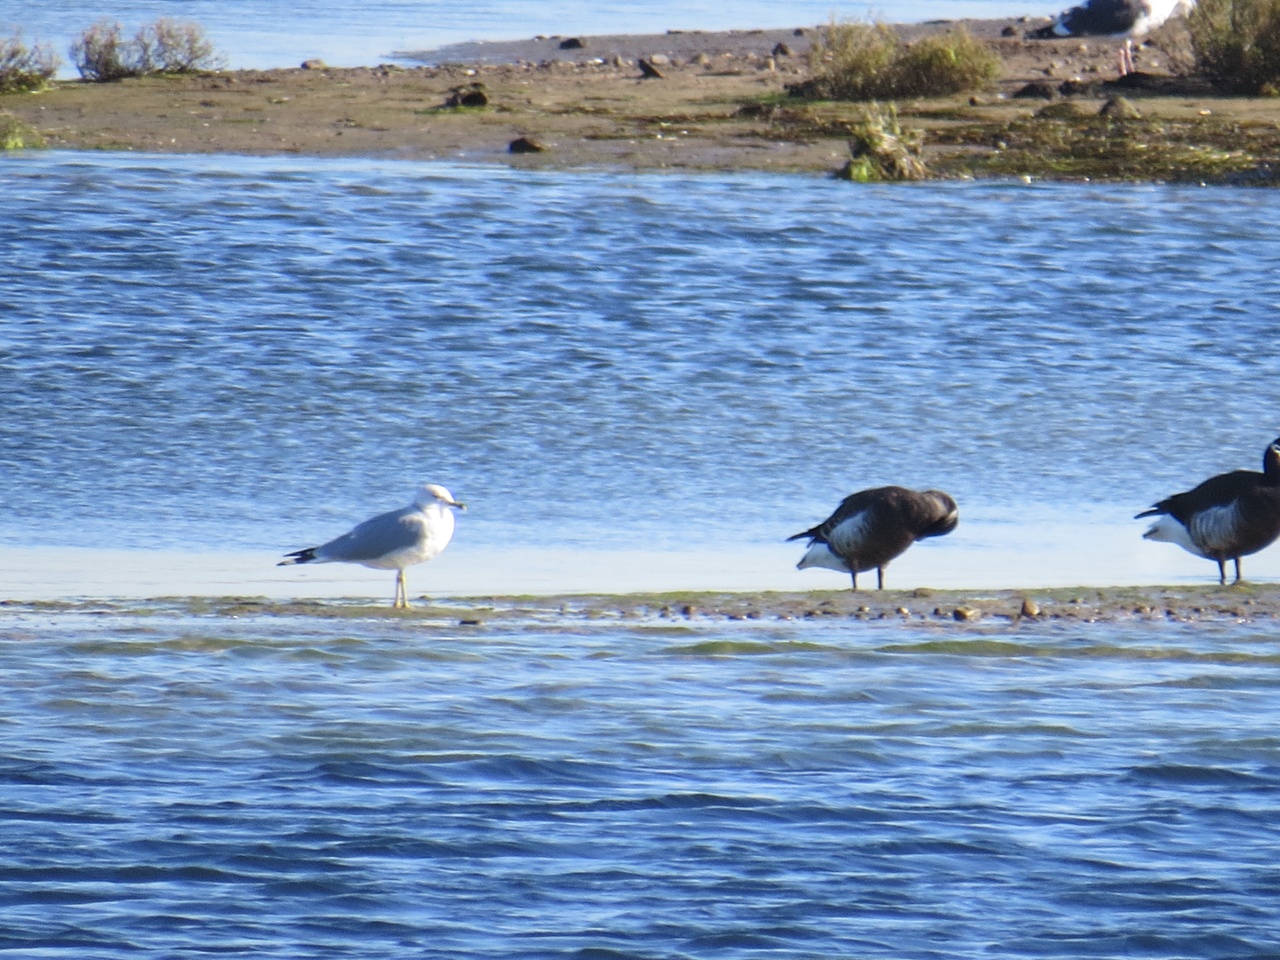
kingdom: Animalia
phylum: Chordata
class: Aves
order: Charadriiformes
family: Laridae
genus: Larus
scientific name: Larus delawarensis
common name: Ring-billed gull
